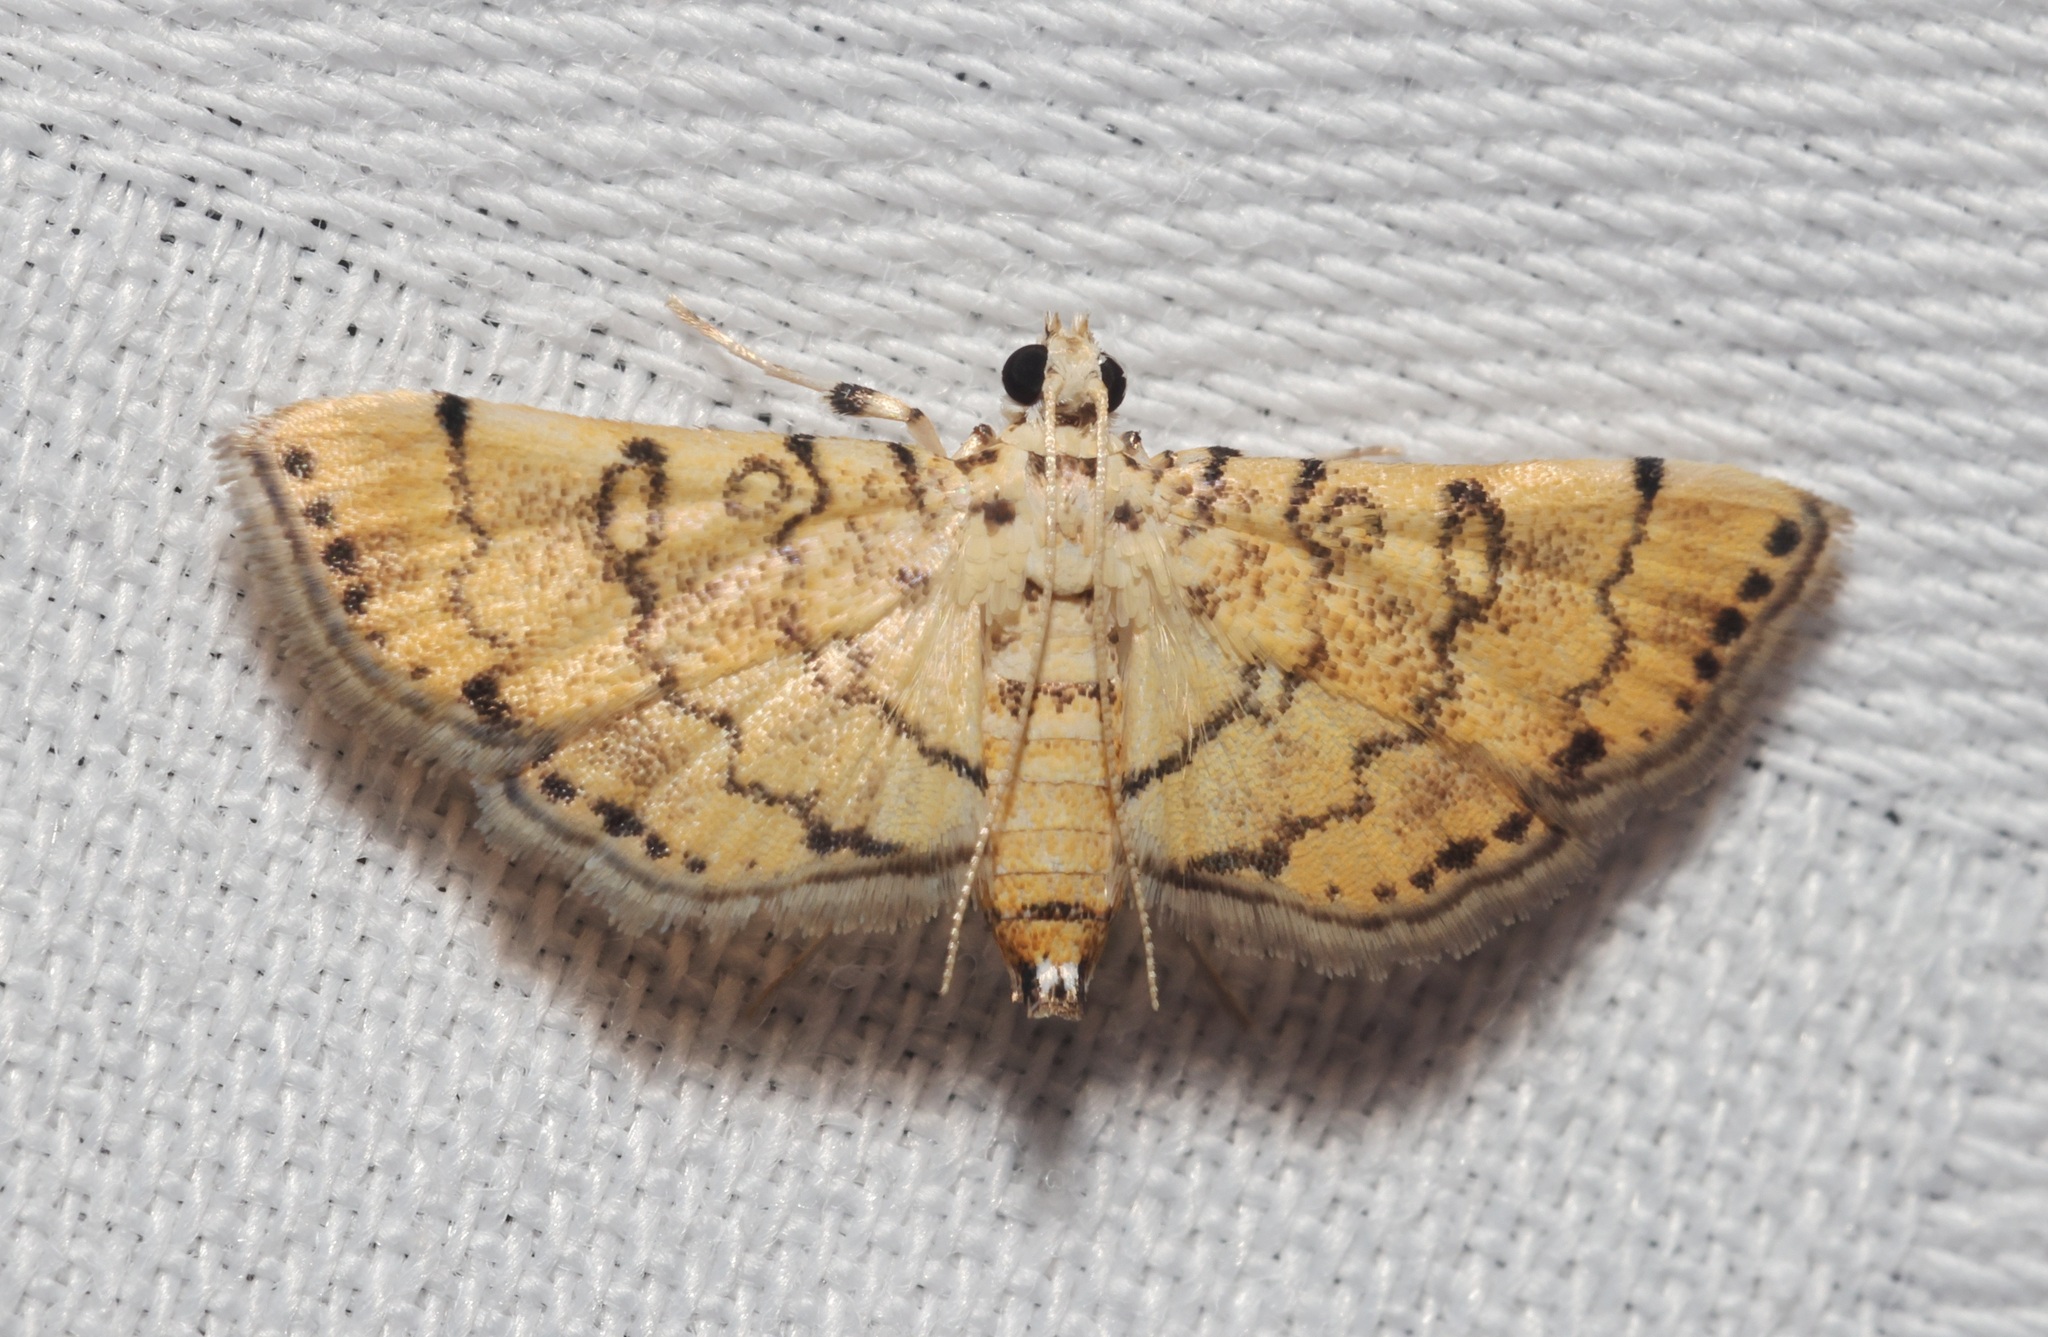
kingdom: Animalia
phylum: Arthropoda
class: Insecta
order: Lepidoptera
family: Crambidae
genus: Lamprosema
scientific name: Lamprosema tampiusalis
